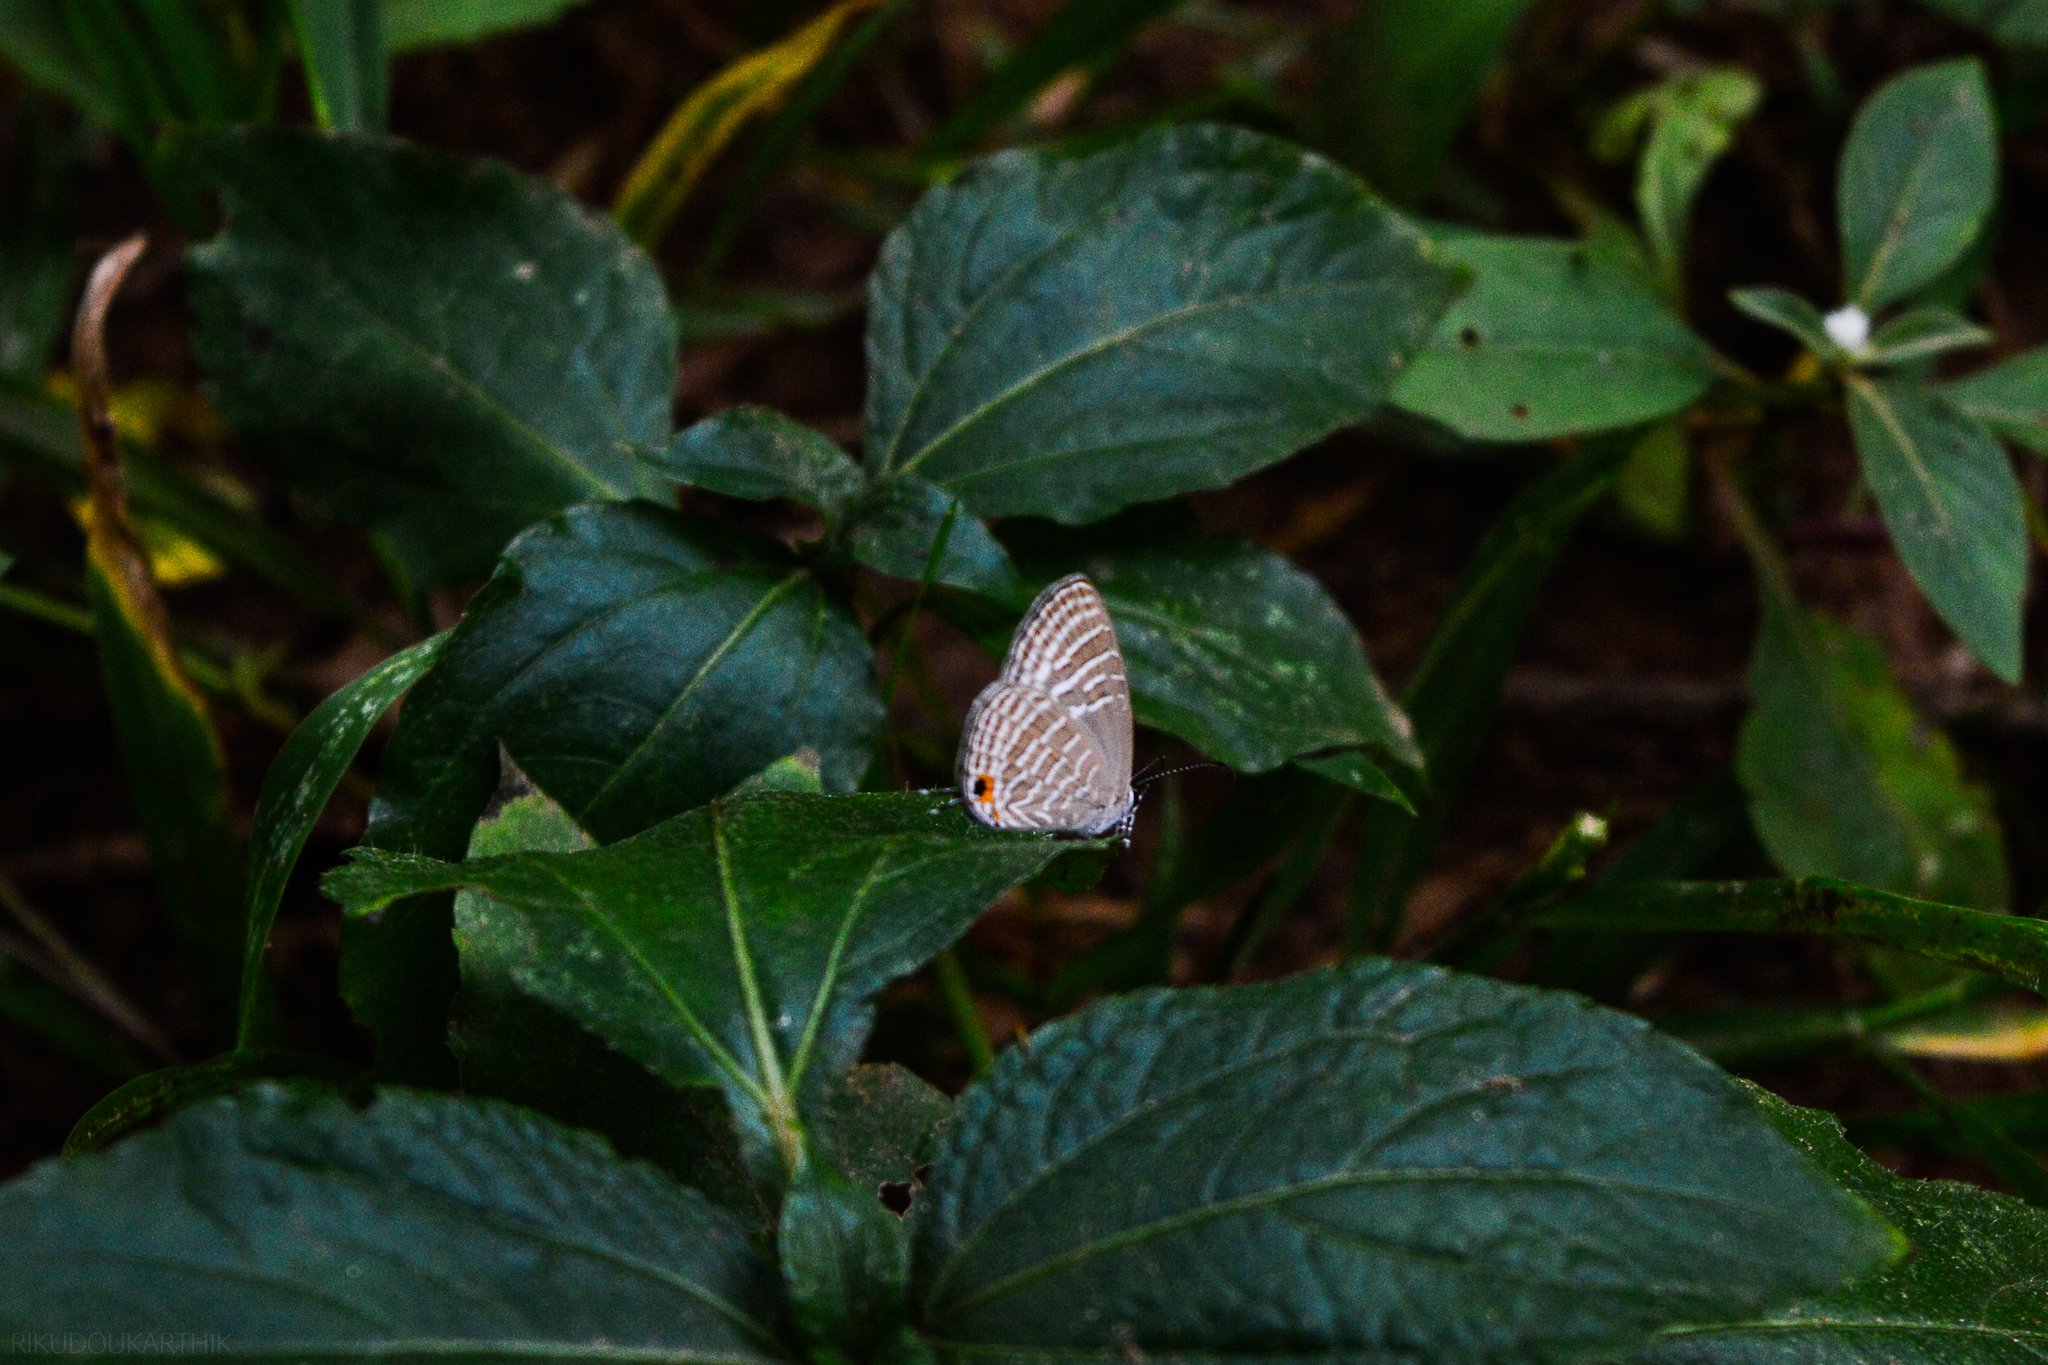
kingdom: Animalia
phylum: Arthropoda
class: Insecta
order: Lepidoptera
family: Lycaenidae
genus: Jamides
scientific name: Jamides celeno
